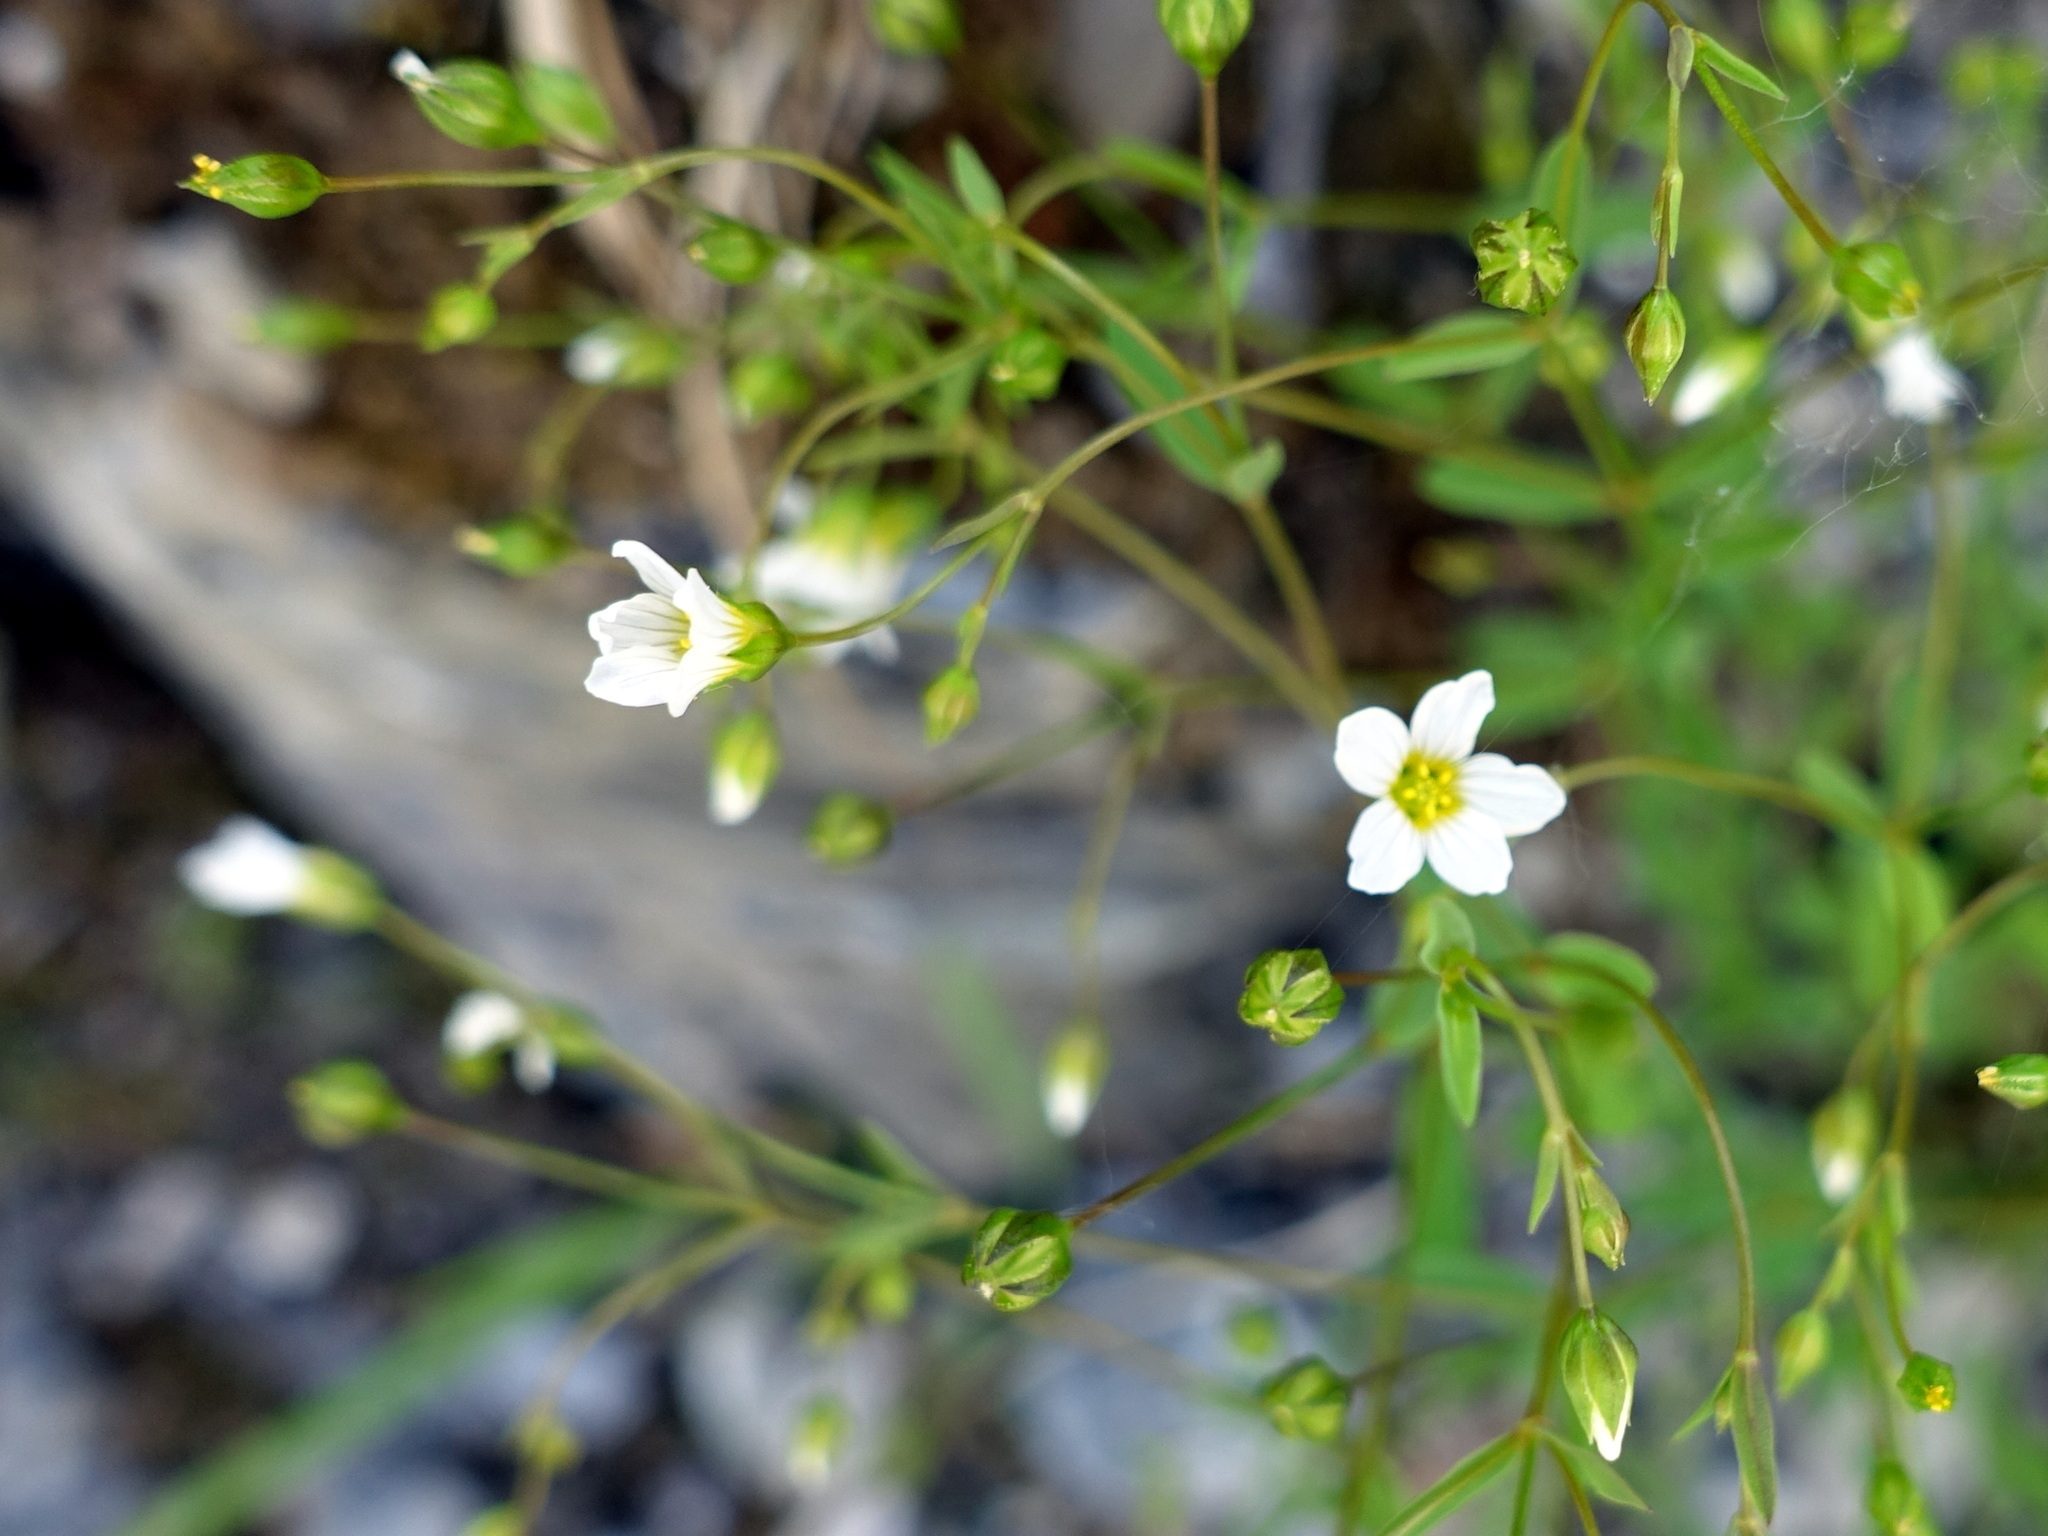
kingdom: Plantae
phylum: Tracheophyta
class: Magnoliopsida
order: Malpighiales
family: Linaceae
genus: Linum
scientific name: Linum catharticum
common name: Fairy flax
